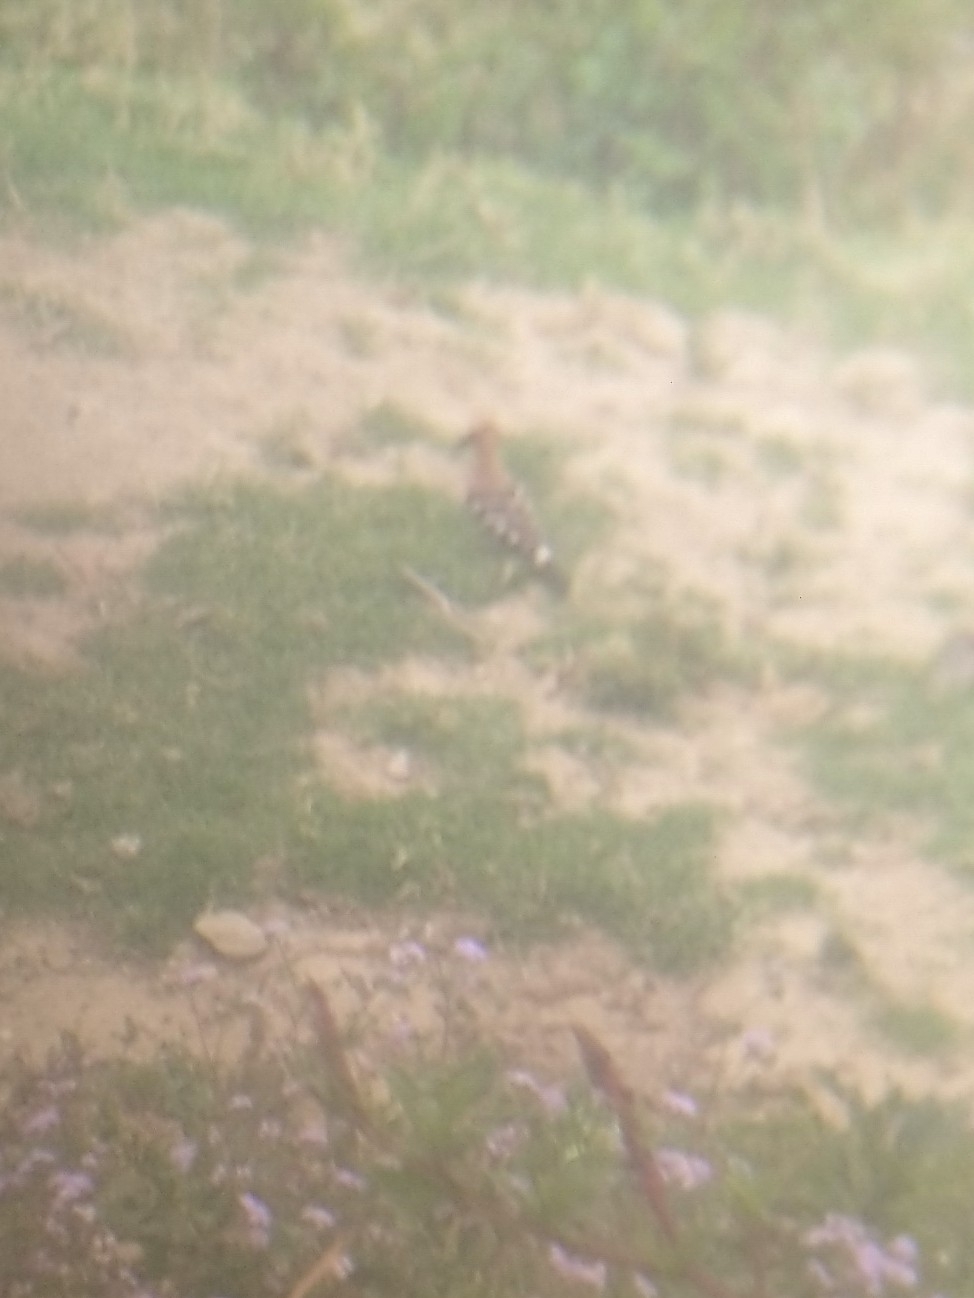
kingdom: Animalia
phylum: Chordata
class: Aves
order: Bucerotiformes
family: Upupidae
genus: Upupa
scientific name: Upupa epops
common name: Eurasian hoopoe
